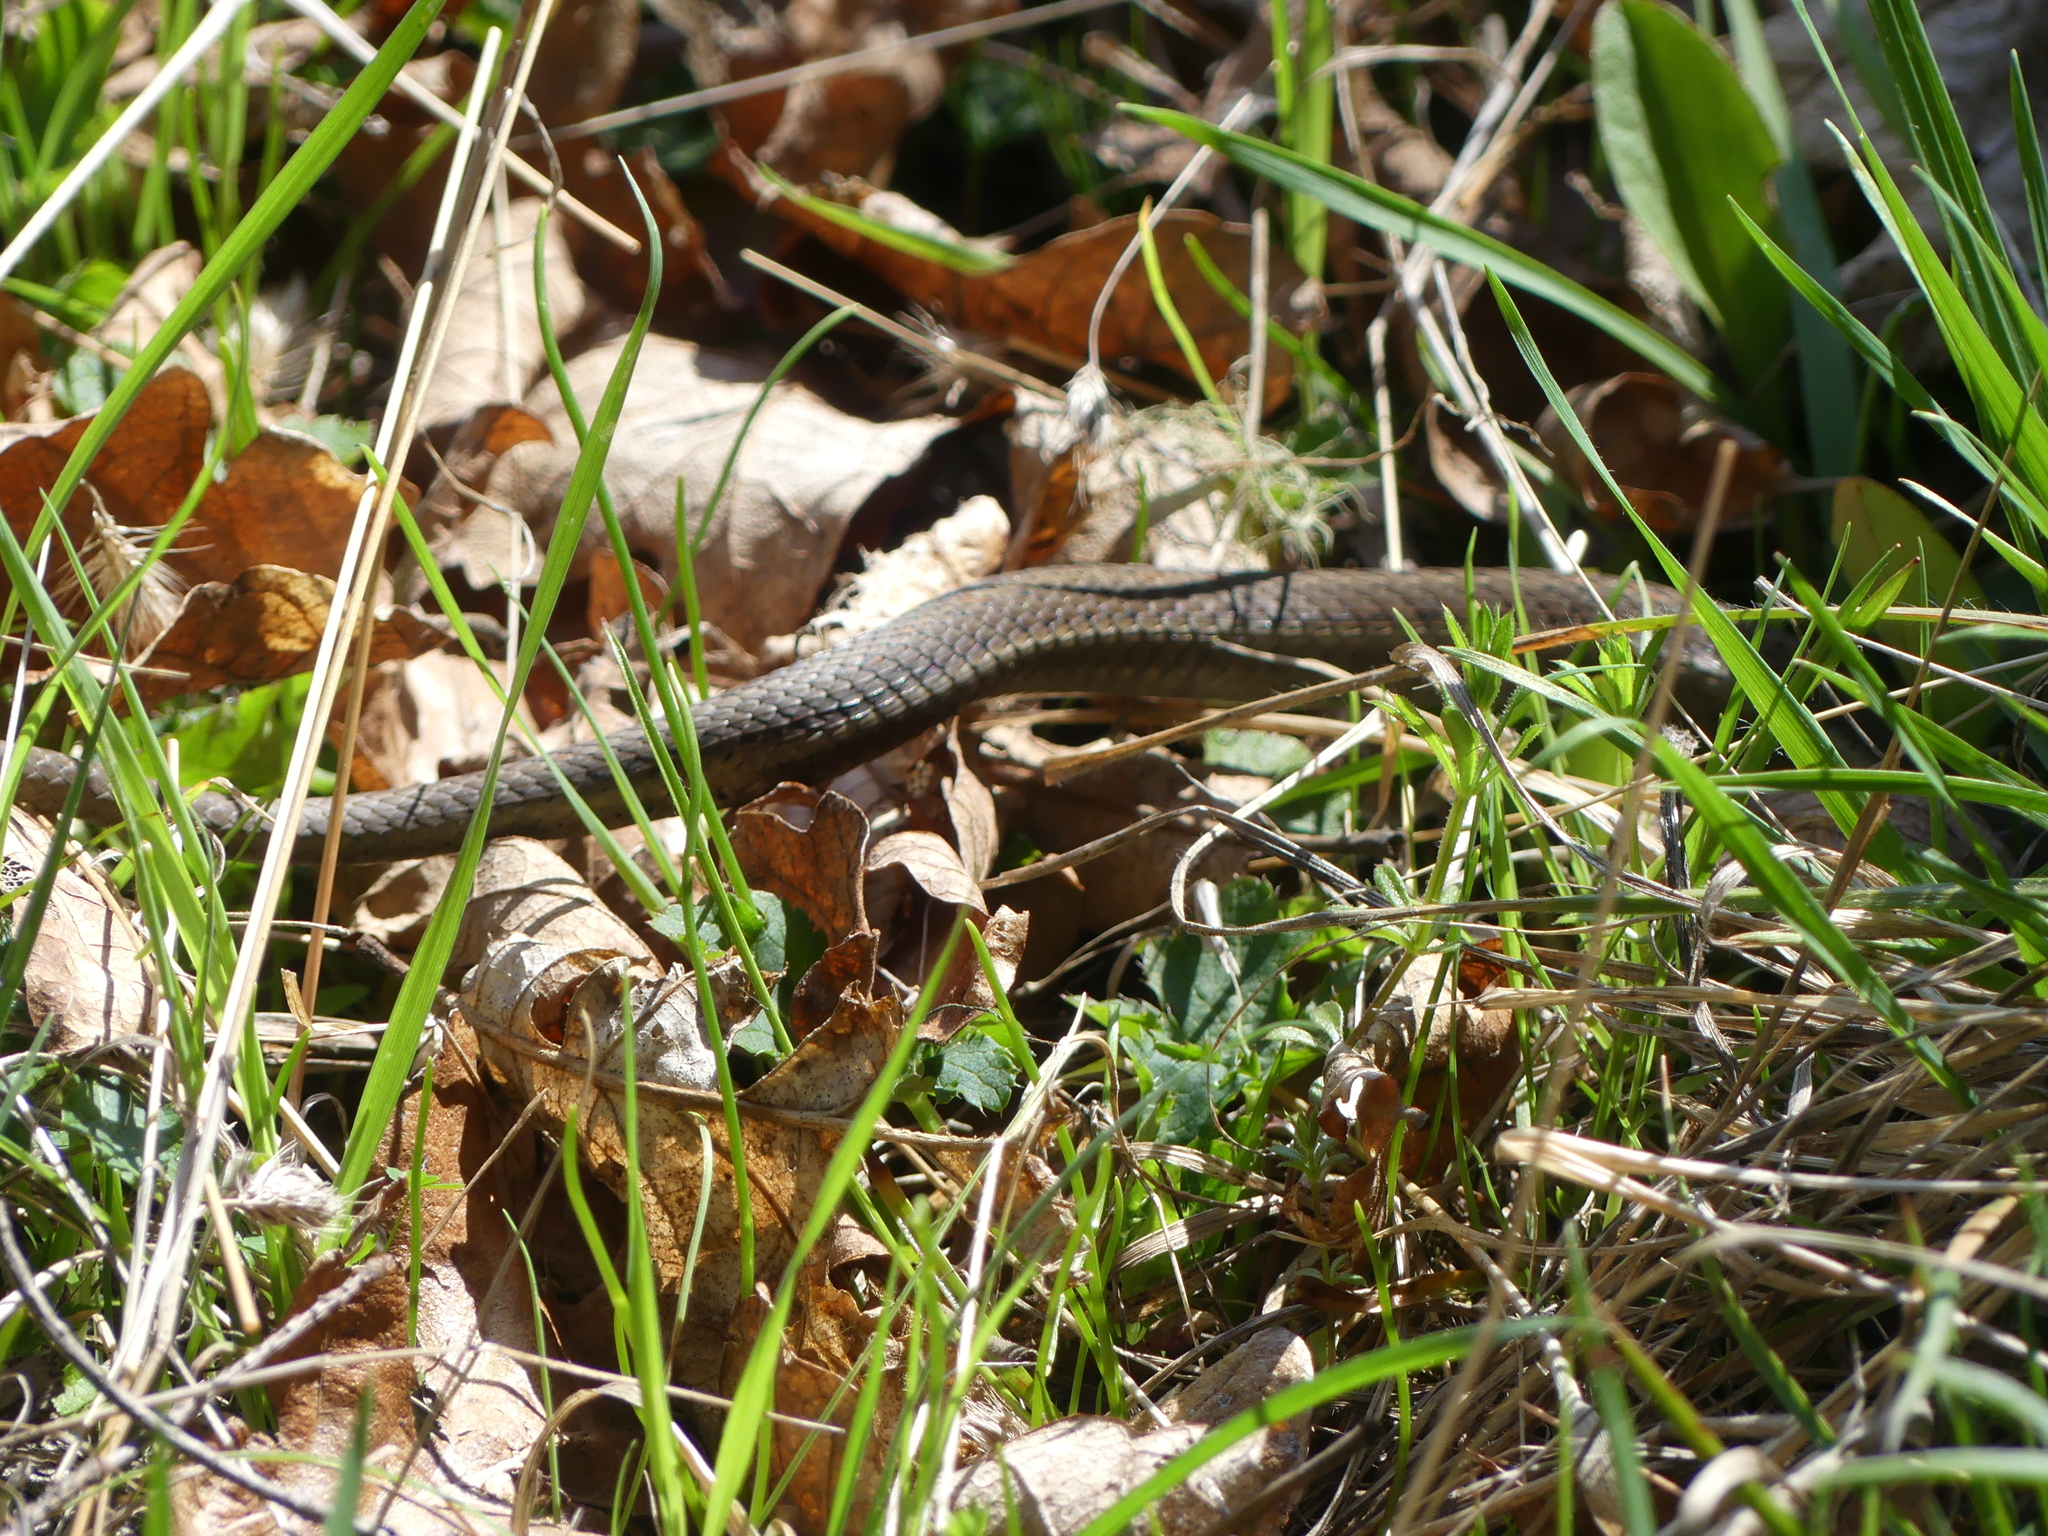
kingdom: Animalia
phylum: Chordata
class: Squamata
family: Colubridae
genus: Thamnophis
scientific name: Thamnophis ordinoides
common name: Northwestern garter snake
